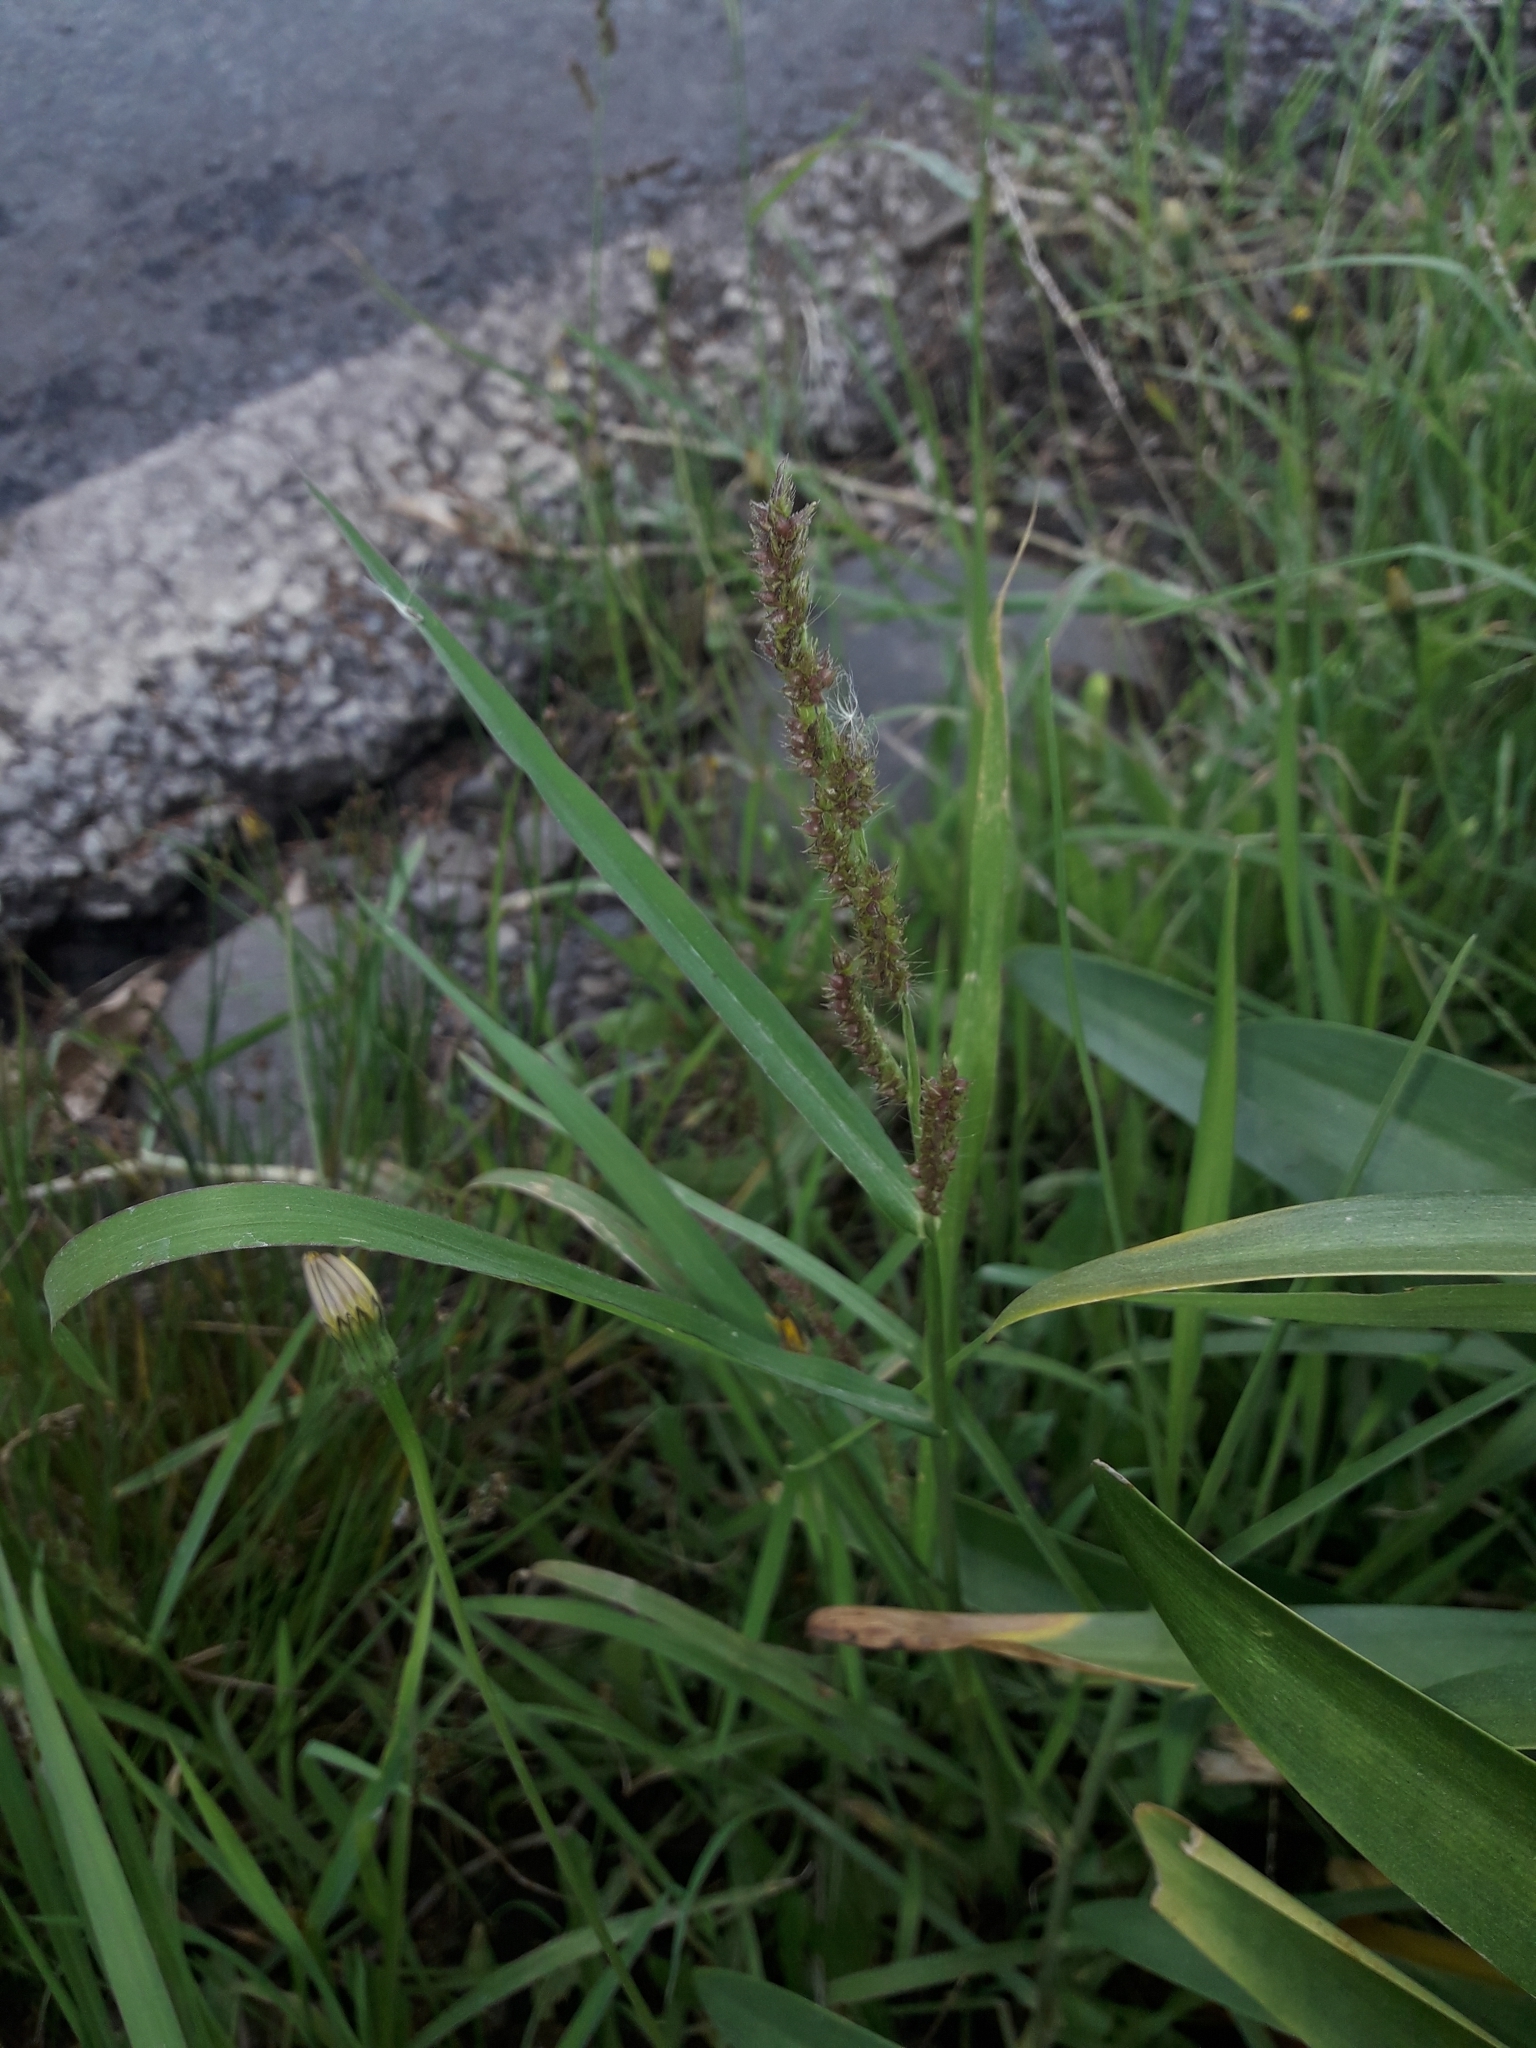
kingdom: Plantae
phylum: Tracheophyta
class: Liliopsida
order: Poales
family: Poaceae
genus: Echinochloa
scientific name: Echinochloa crus-galli
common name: Cockspur
